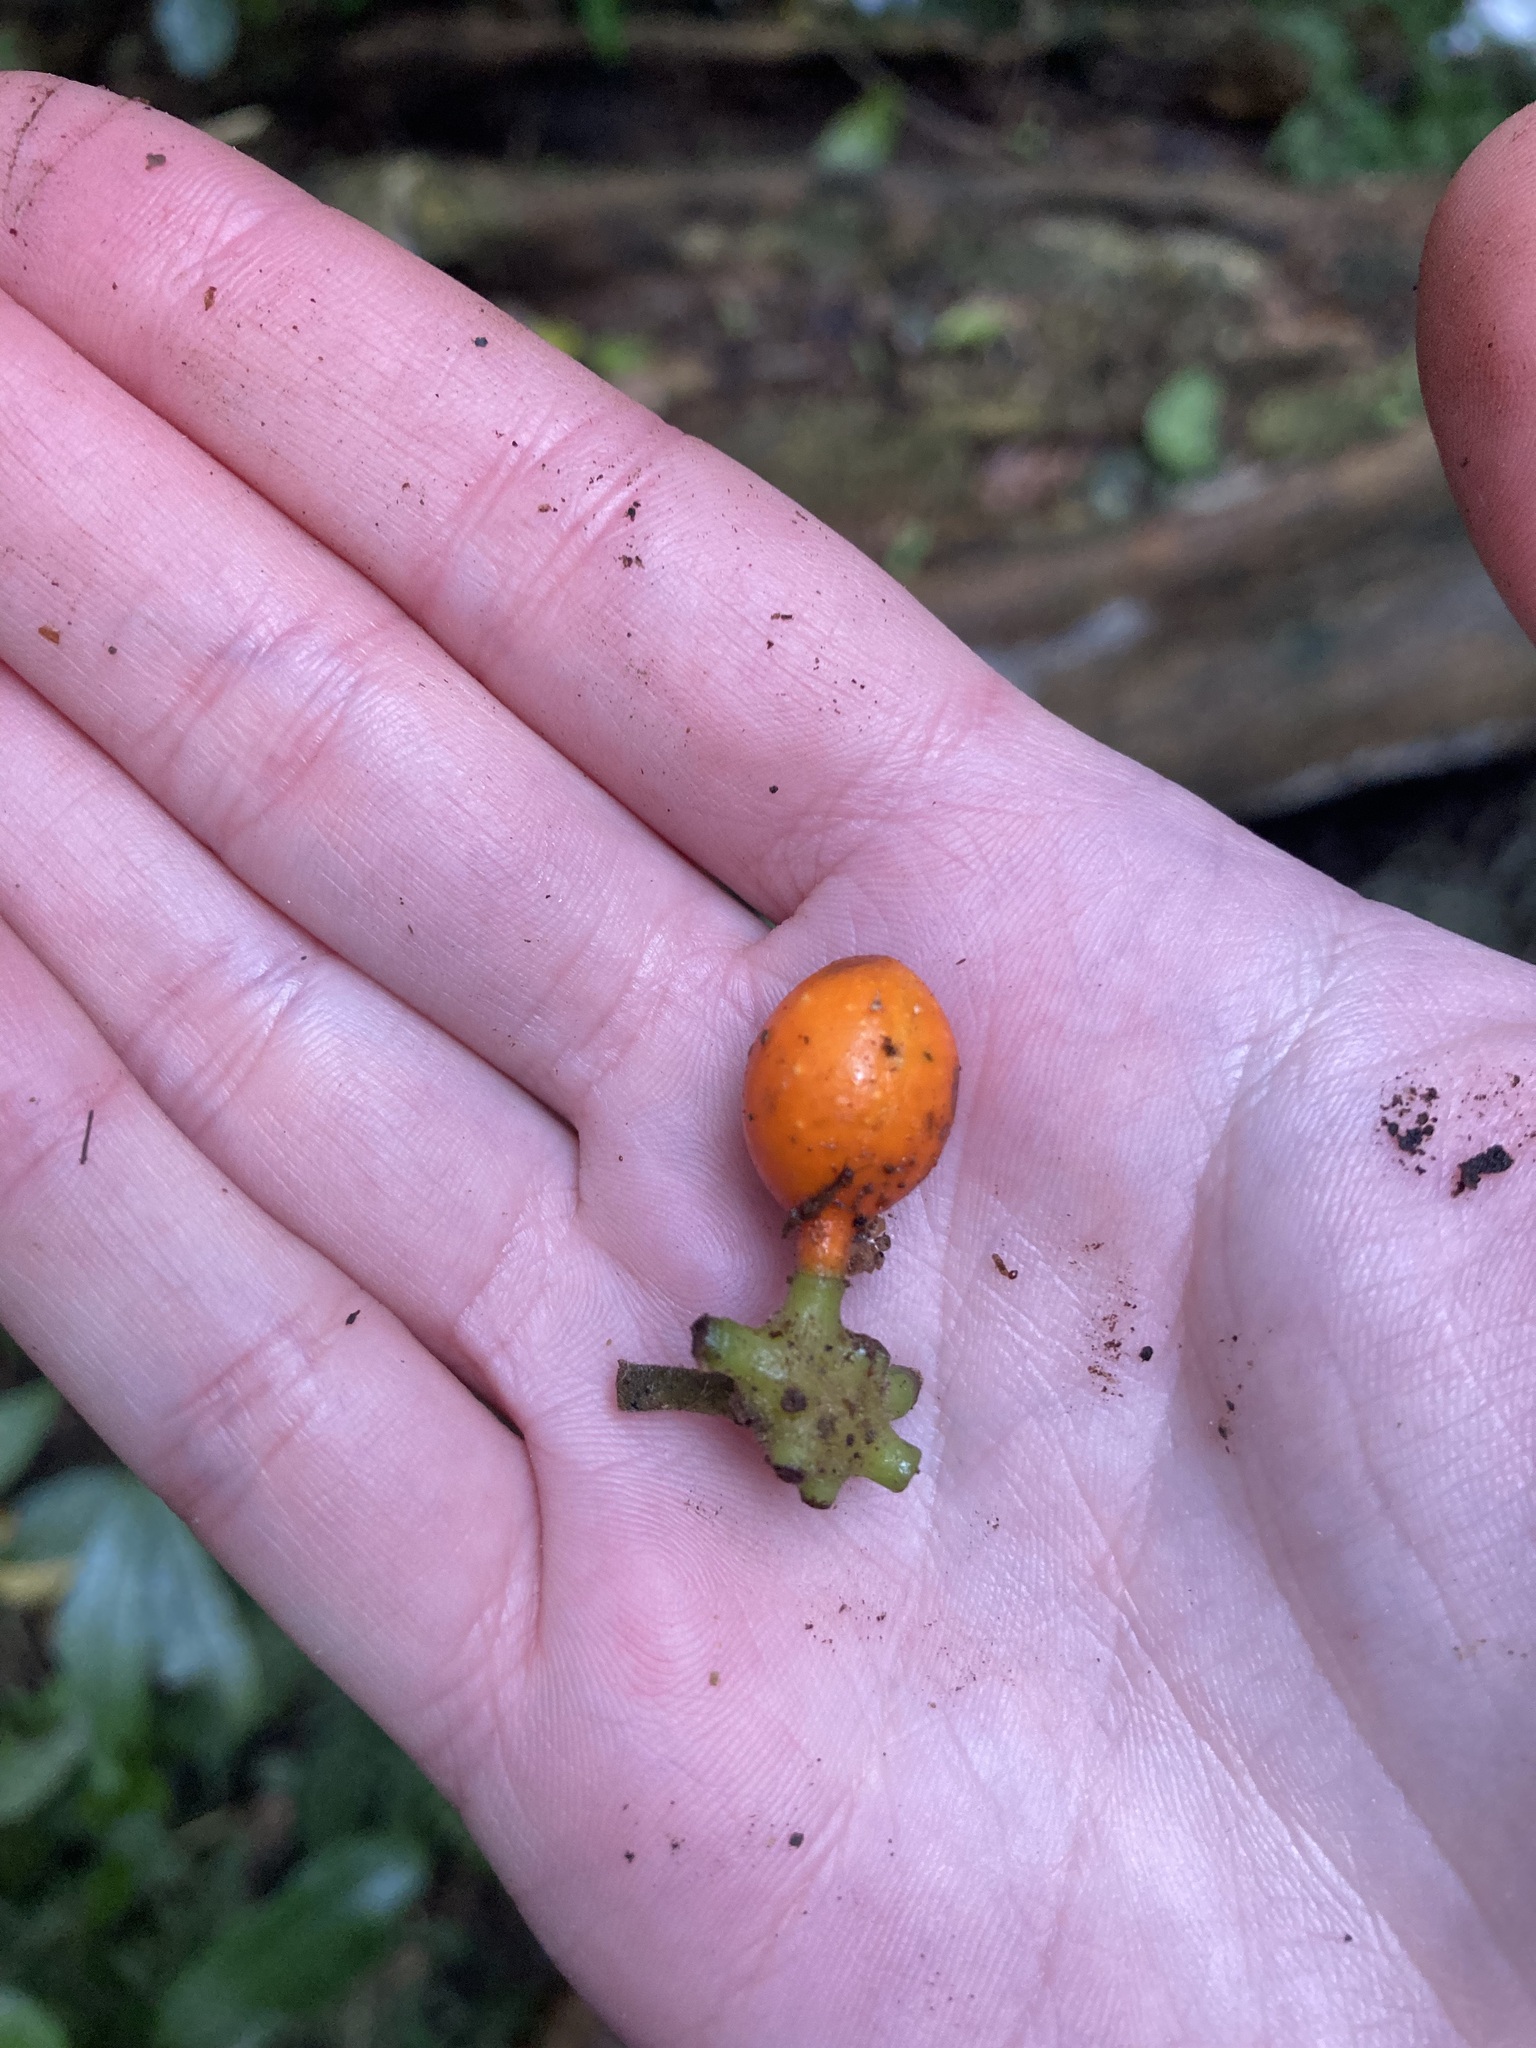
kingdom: Plantae
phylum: Tracheophyta
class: Magnoliopsida
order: Laurales
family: Monimiaceae
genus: Hedycarya
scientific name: Hedycarya arborea
